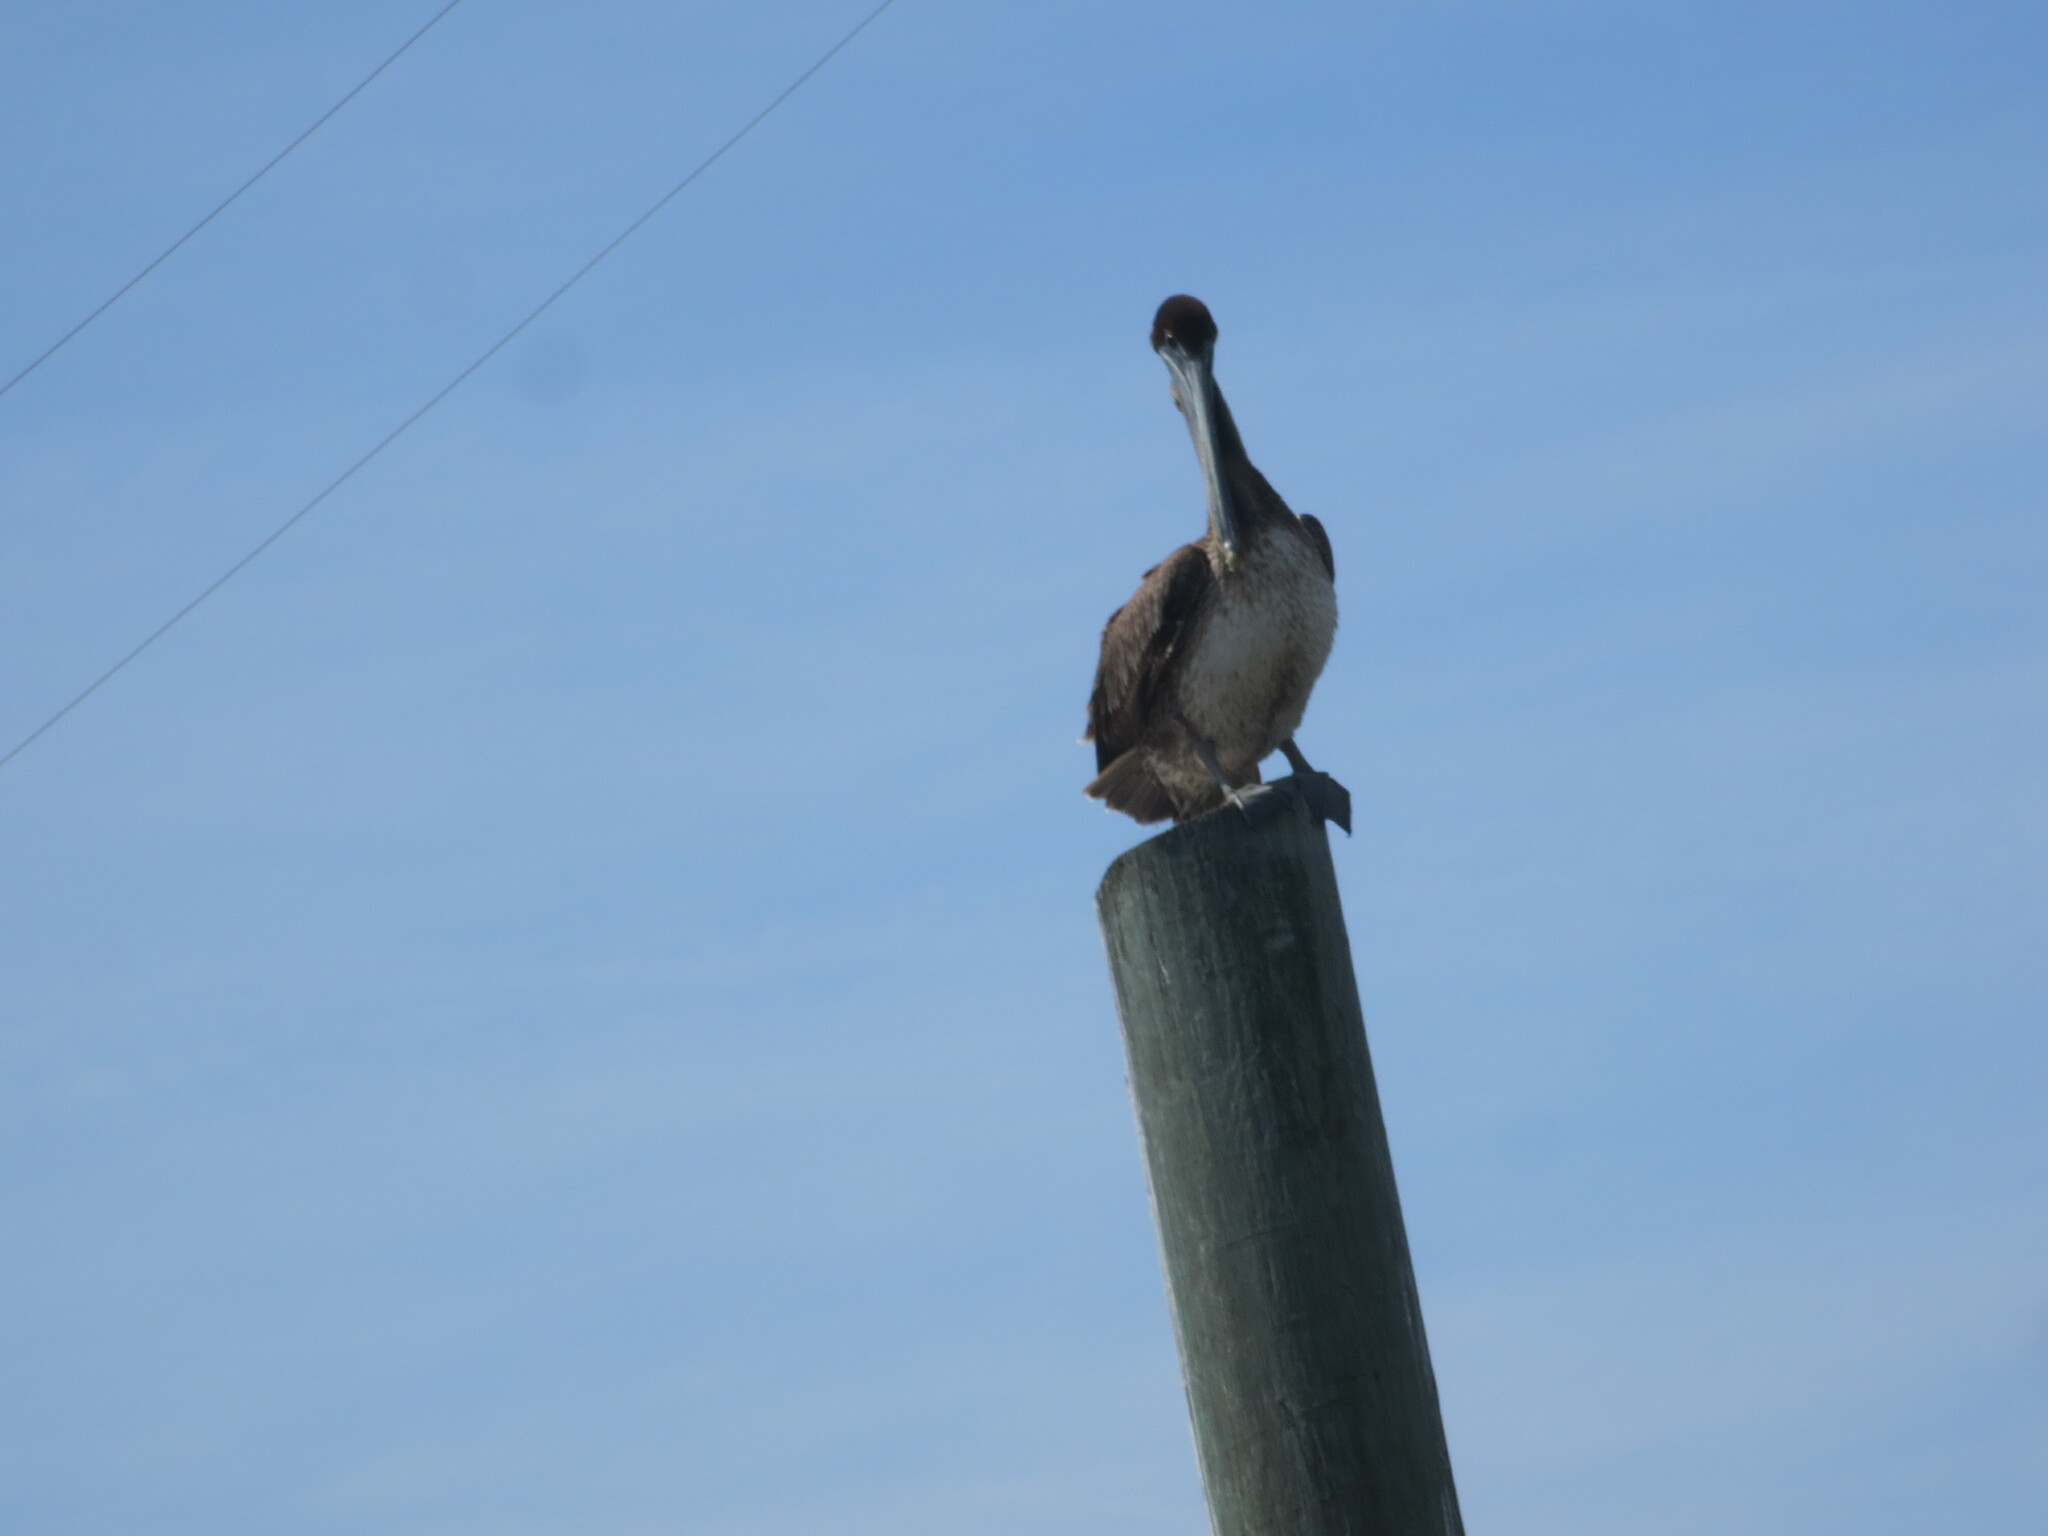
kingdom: Animalia
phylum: Chordata
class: Aves
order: Pelecaniformes
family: Pelecanidae
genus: Pelecanus
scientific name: Pelecanus occidentalis
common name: Brown pelican
